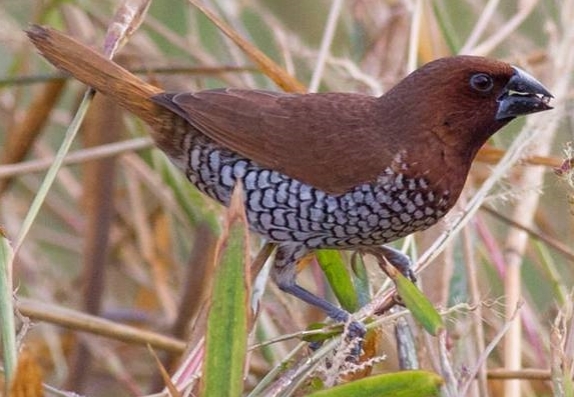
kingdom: Animalia
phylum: Chordata
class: Aves
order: Passeriformes
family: Estrildidae
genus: Lonchura
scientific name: Lonchura punctulata
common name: Scaly-breasted munia
